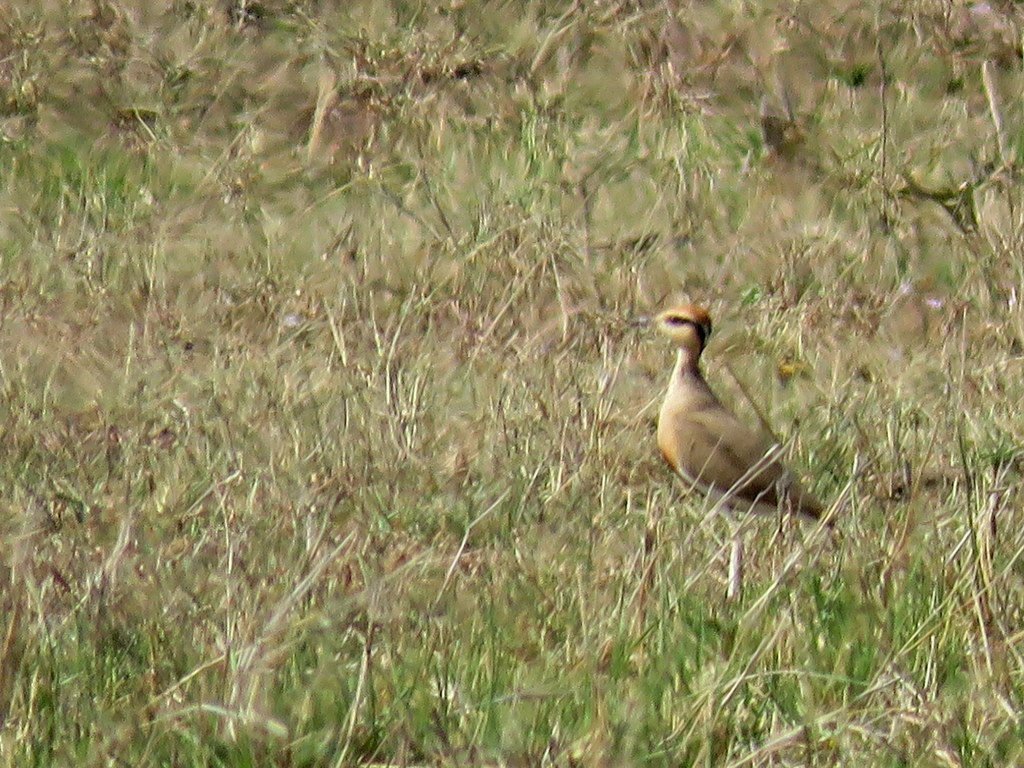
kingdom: Animalia
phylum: Chordata
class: Aves
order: Charadriiformes
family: Glareolidae
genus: Cursorius
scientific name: Cursorius temminckii
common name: Temminck's courser
